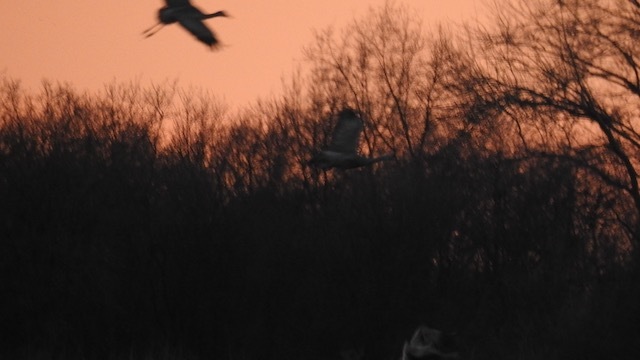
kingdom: Animalia
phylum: Chordata
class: Aves
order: Gruiformes
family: Gruidae
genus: Grus
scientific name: Grus canadensis
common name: Sandhill crane
